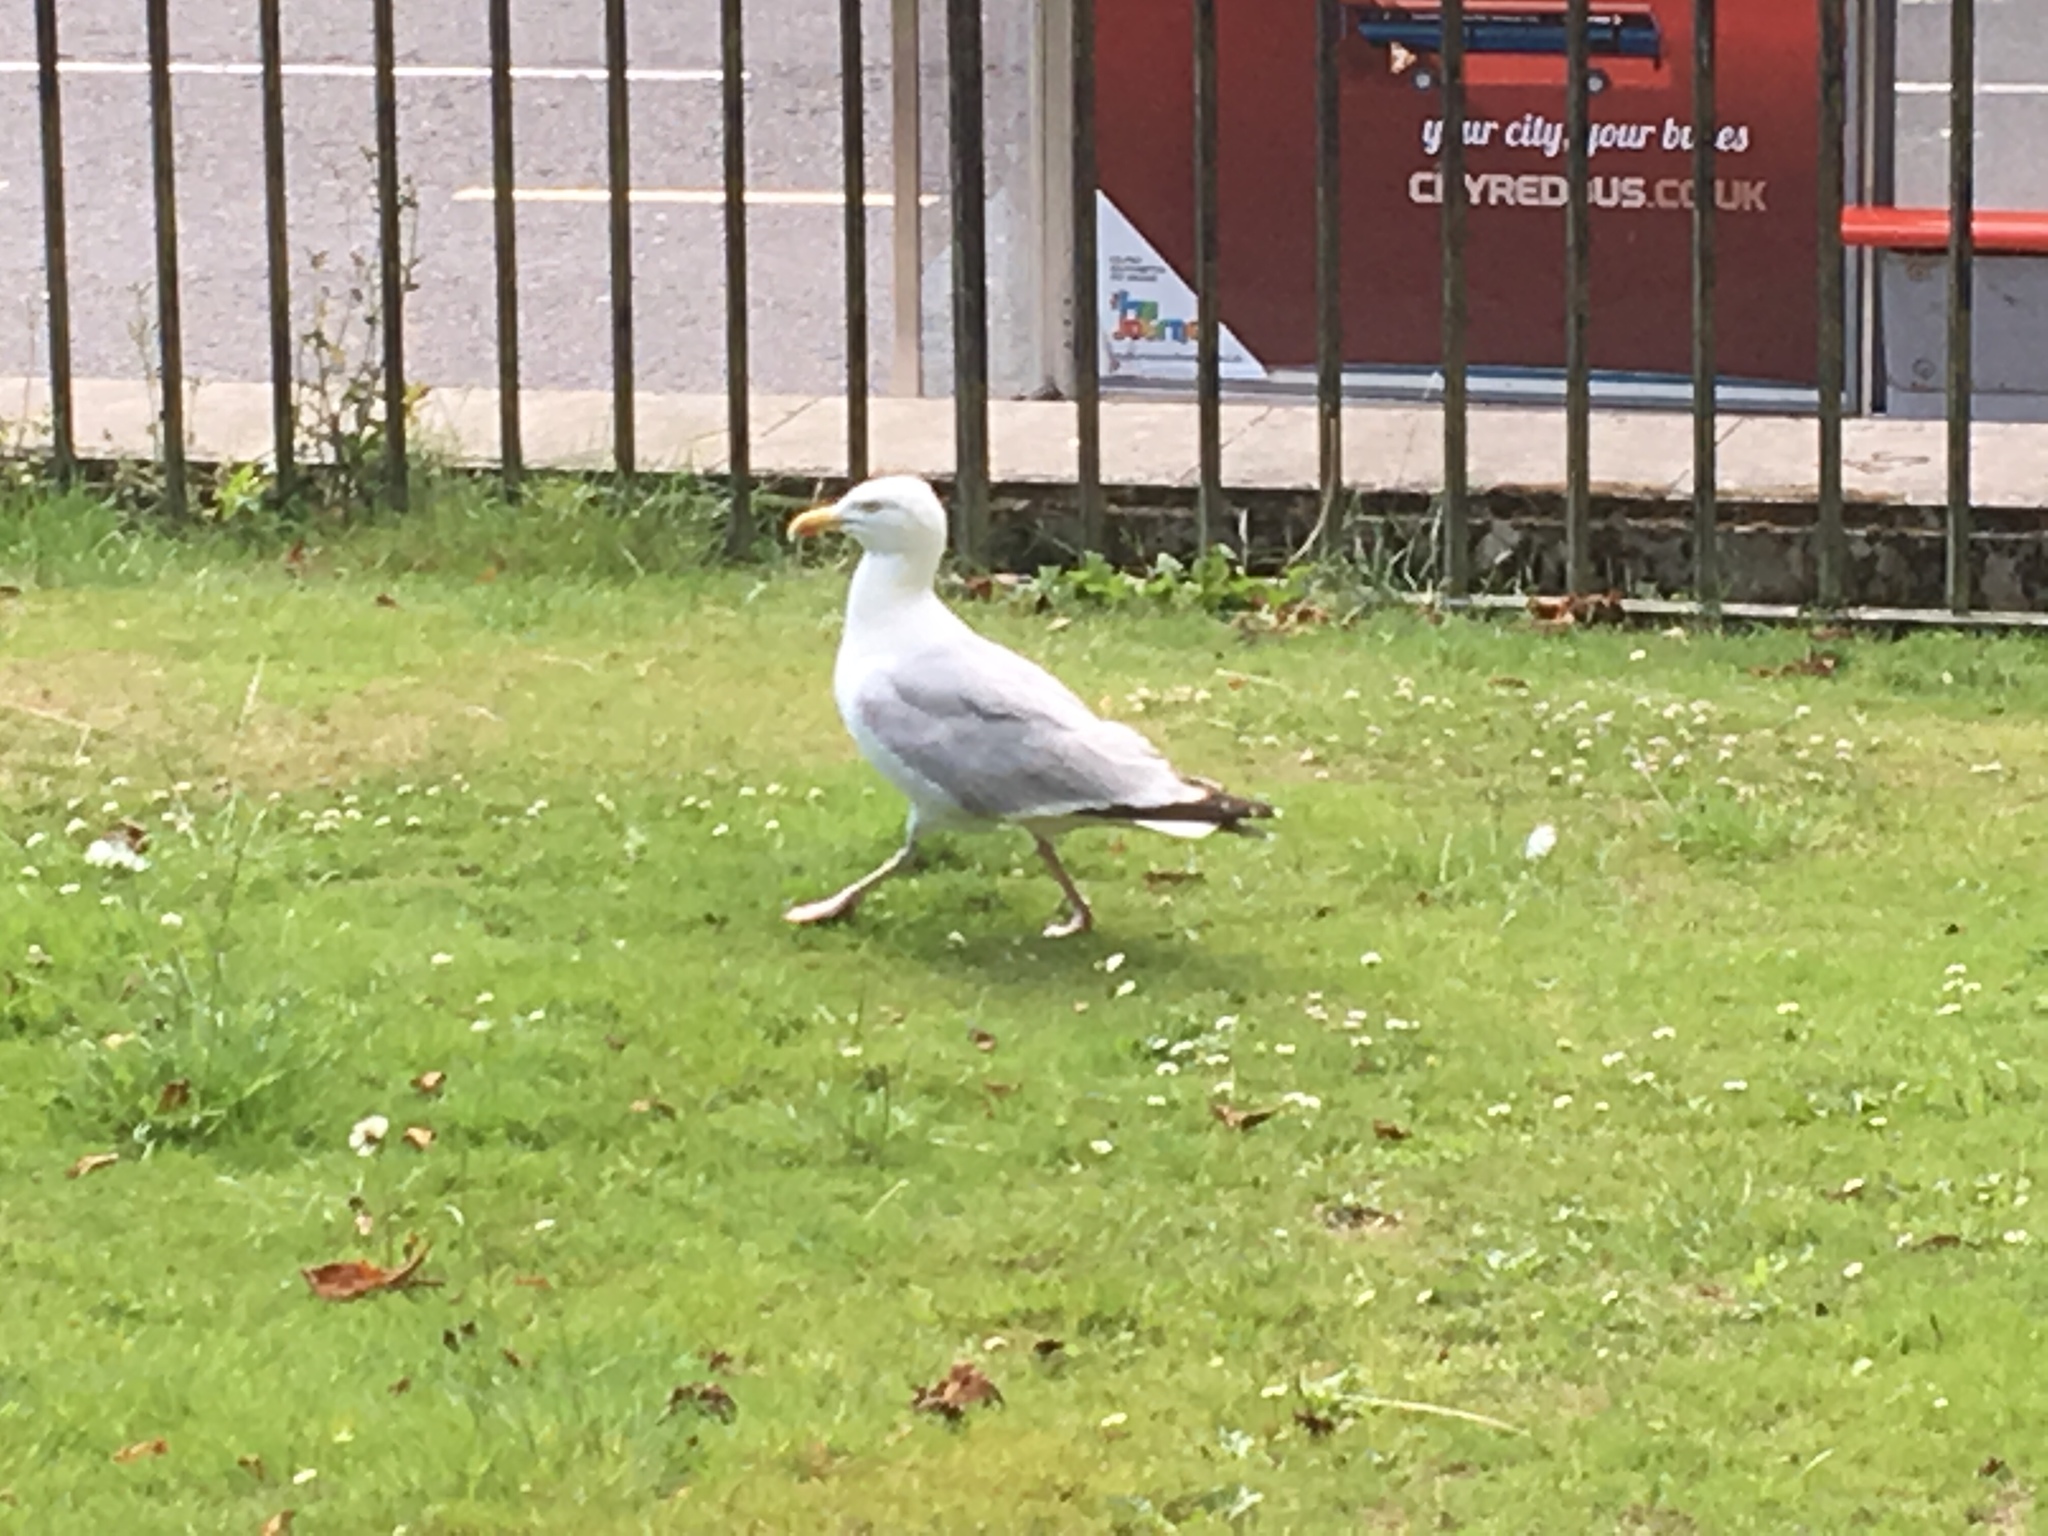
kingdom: Animalia
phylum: Chordata
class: Aves
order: Charadriiformes
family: Laridae
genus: Larus
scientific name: Larus argentatus
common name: Herring gull
